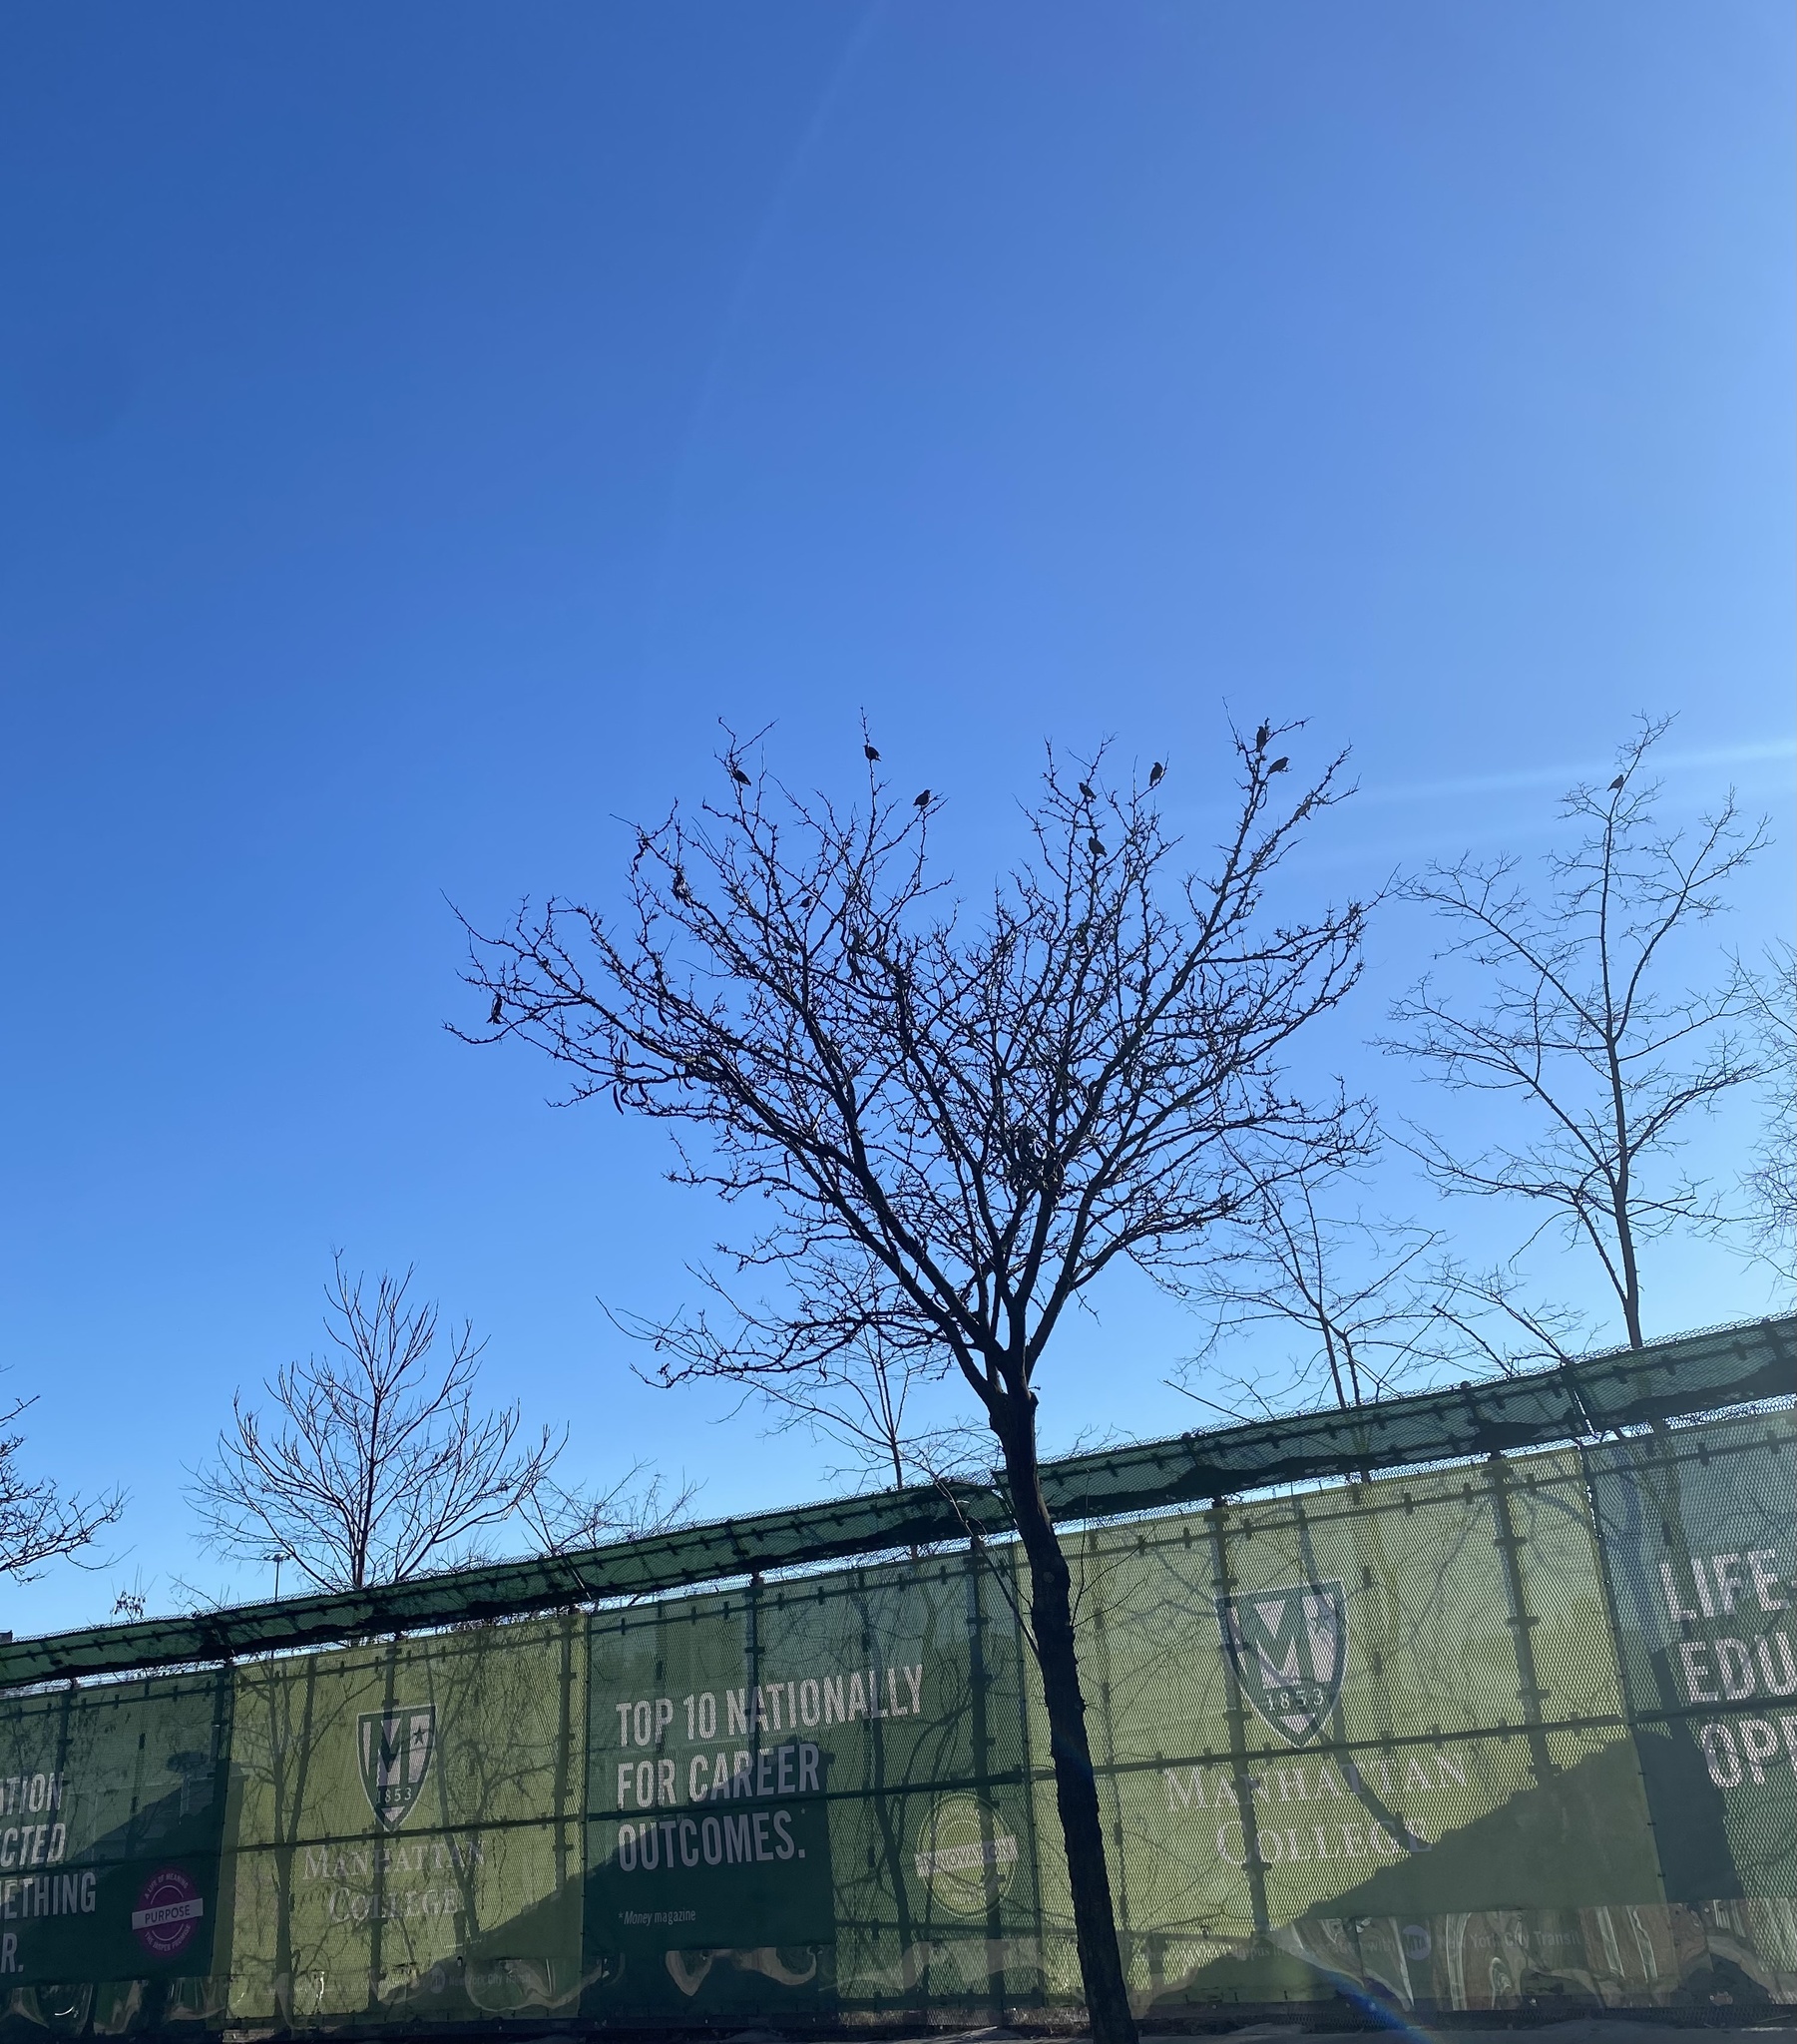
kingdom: Animalia
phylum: Chordata
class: Aves
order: Passeriformes
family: Sturnidae
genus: Sturnus
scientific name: Sturnus vulgaris
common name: Common starling
